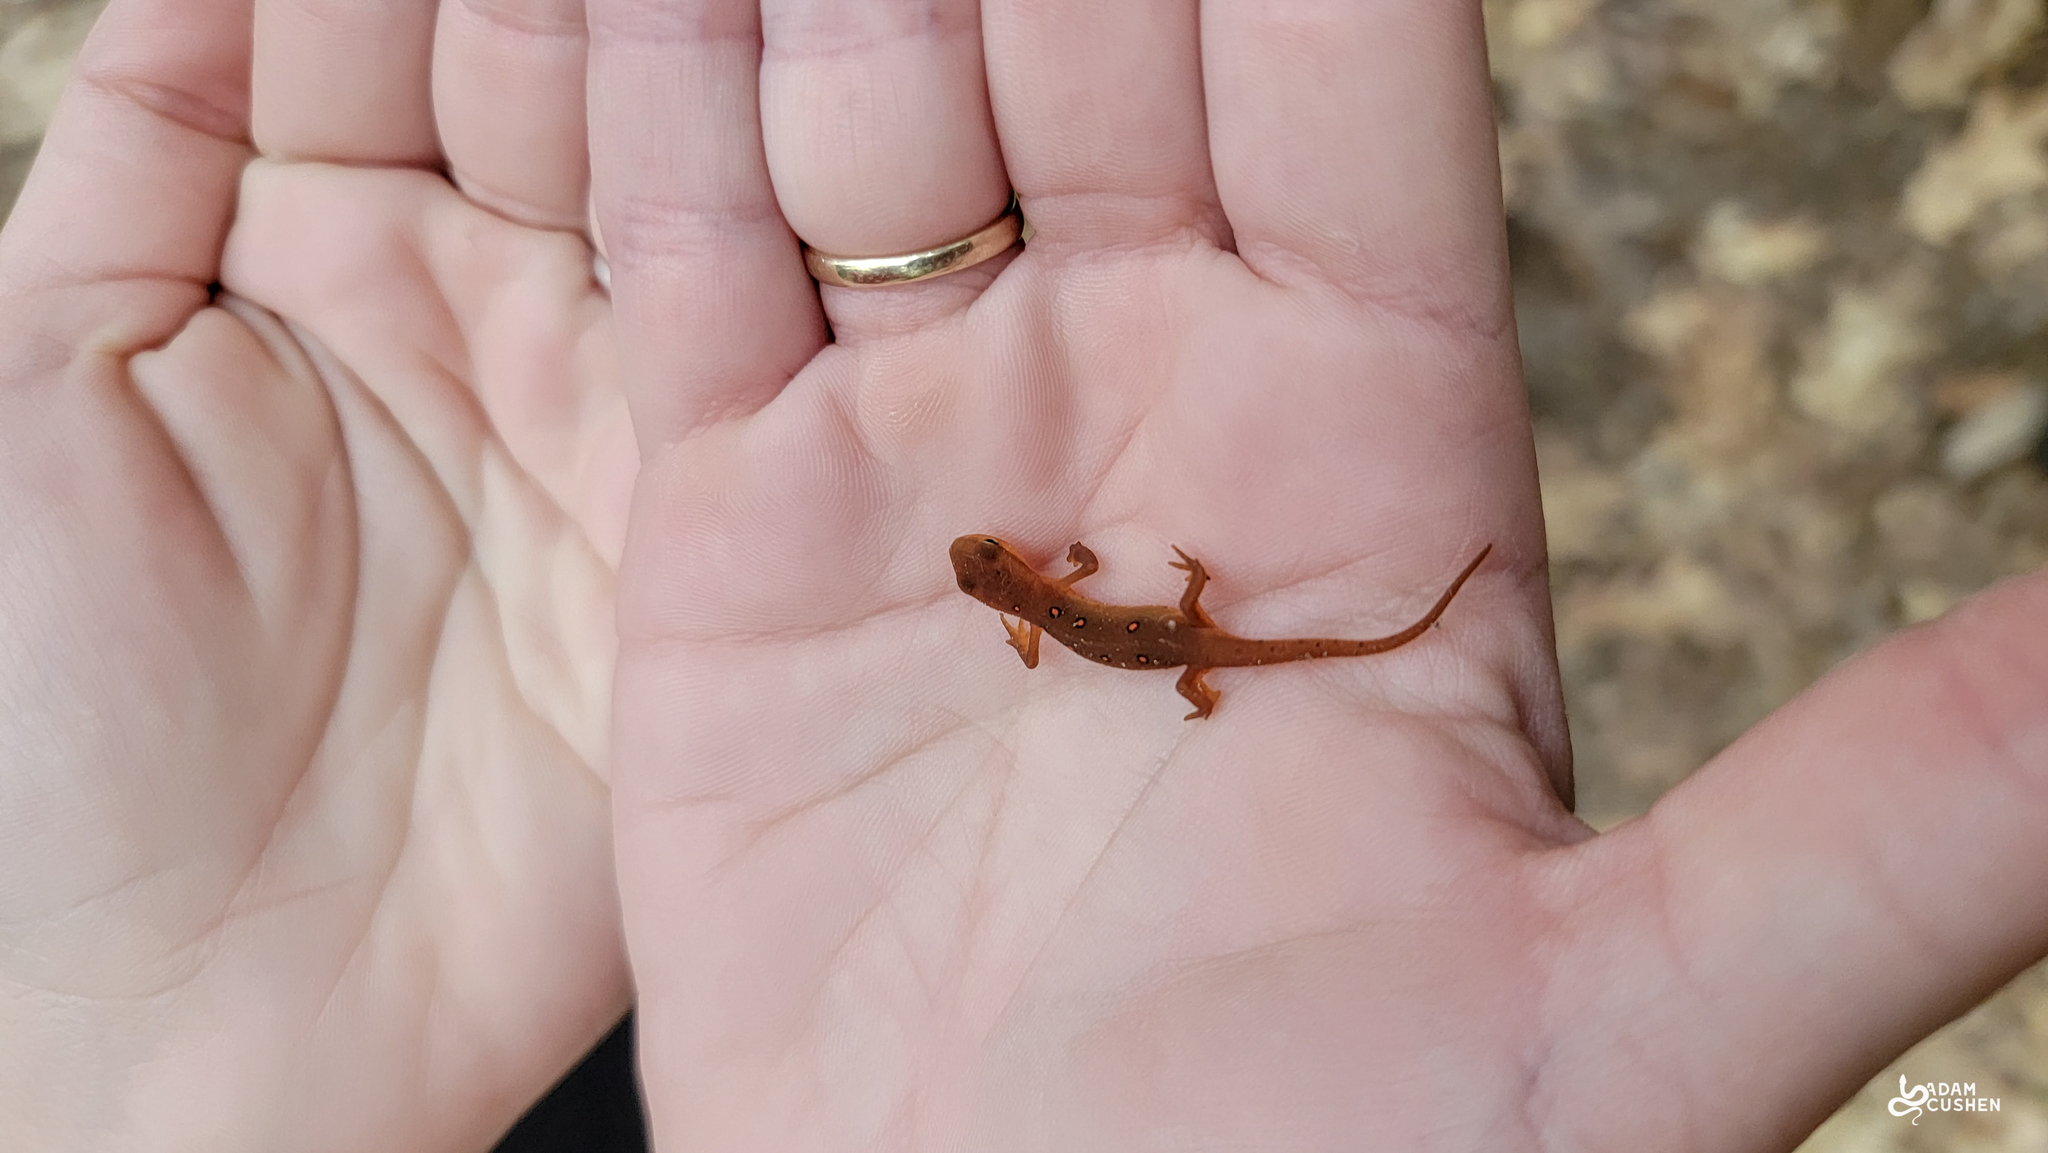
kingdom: Animalia
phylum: Chordata
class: Amphibia
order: Caudata
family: Salamandridae
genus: Notophthalmus
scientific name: Notophthalmus viridescens
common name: Eastern newt
